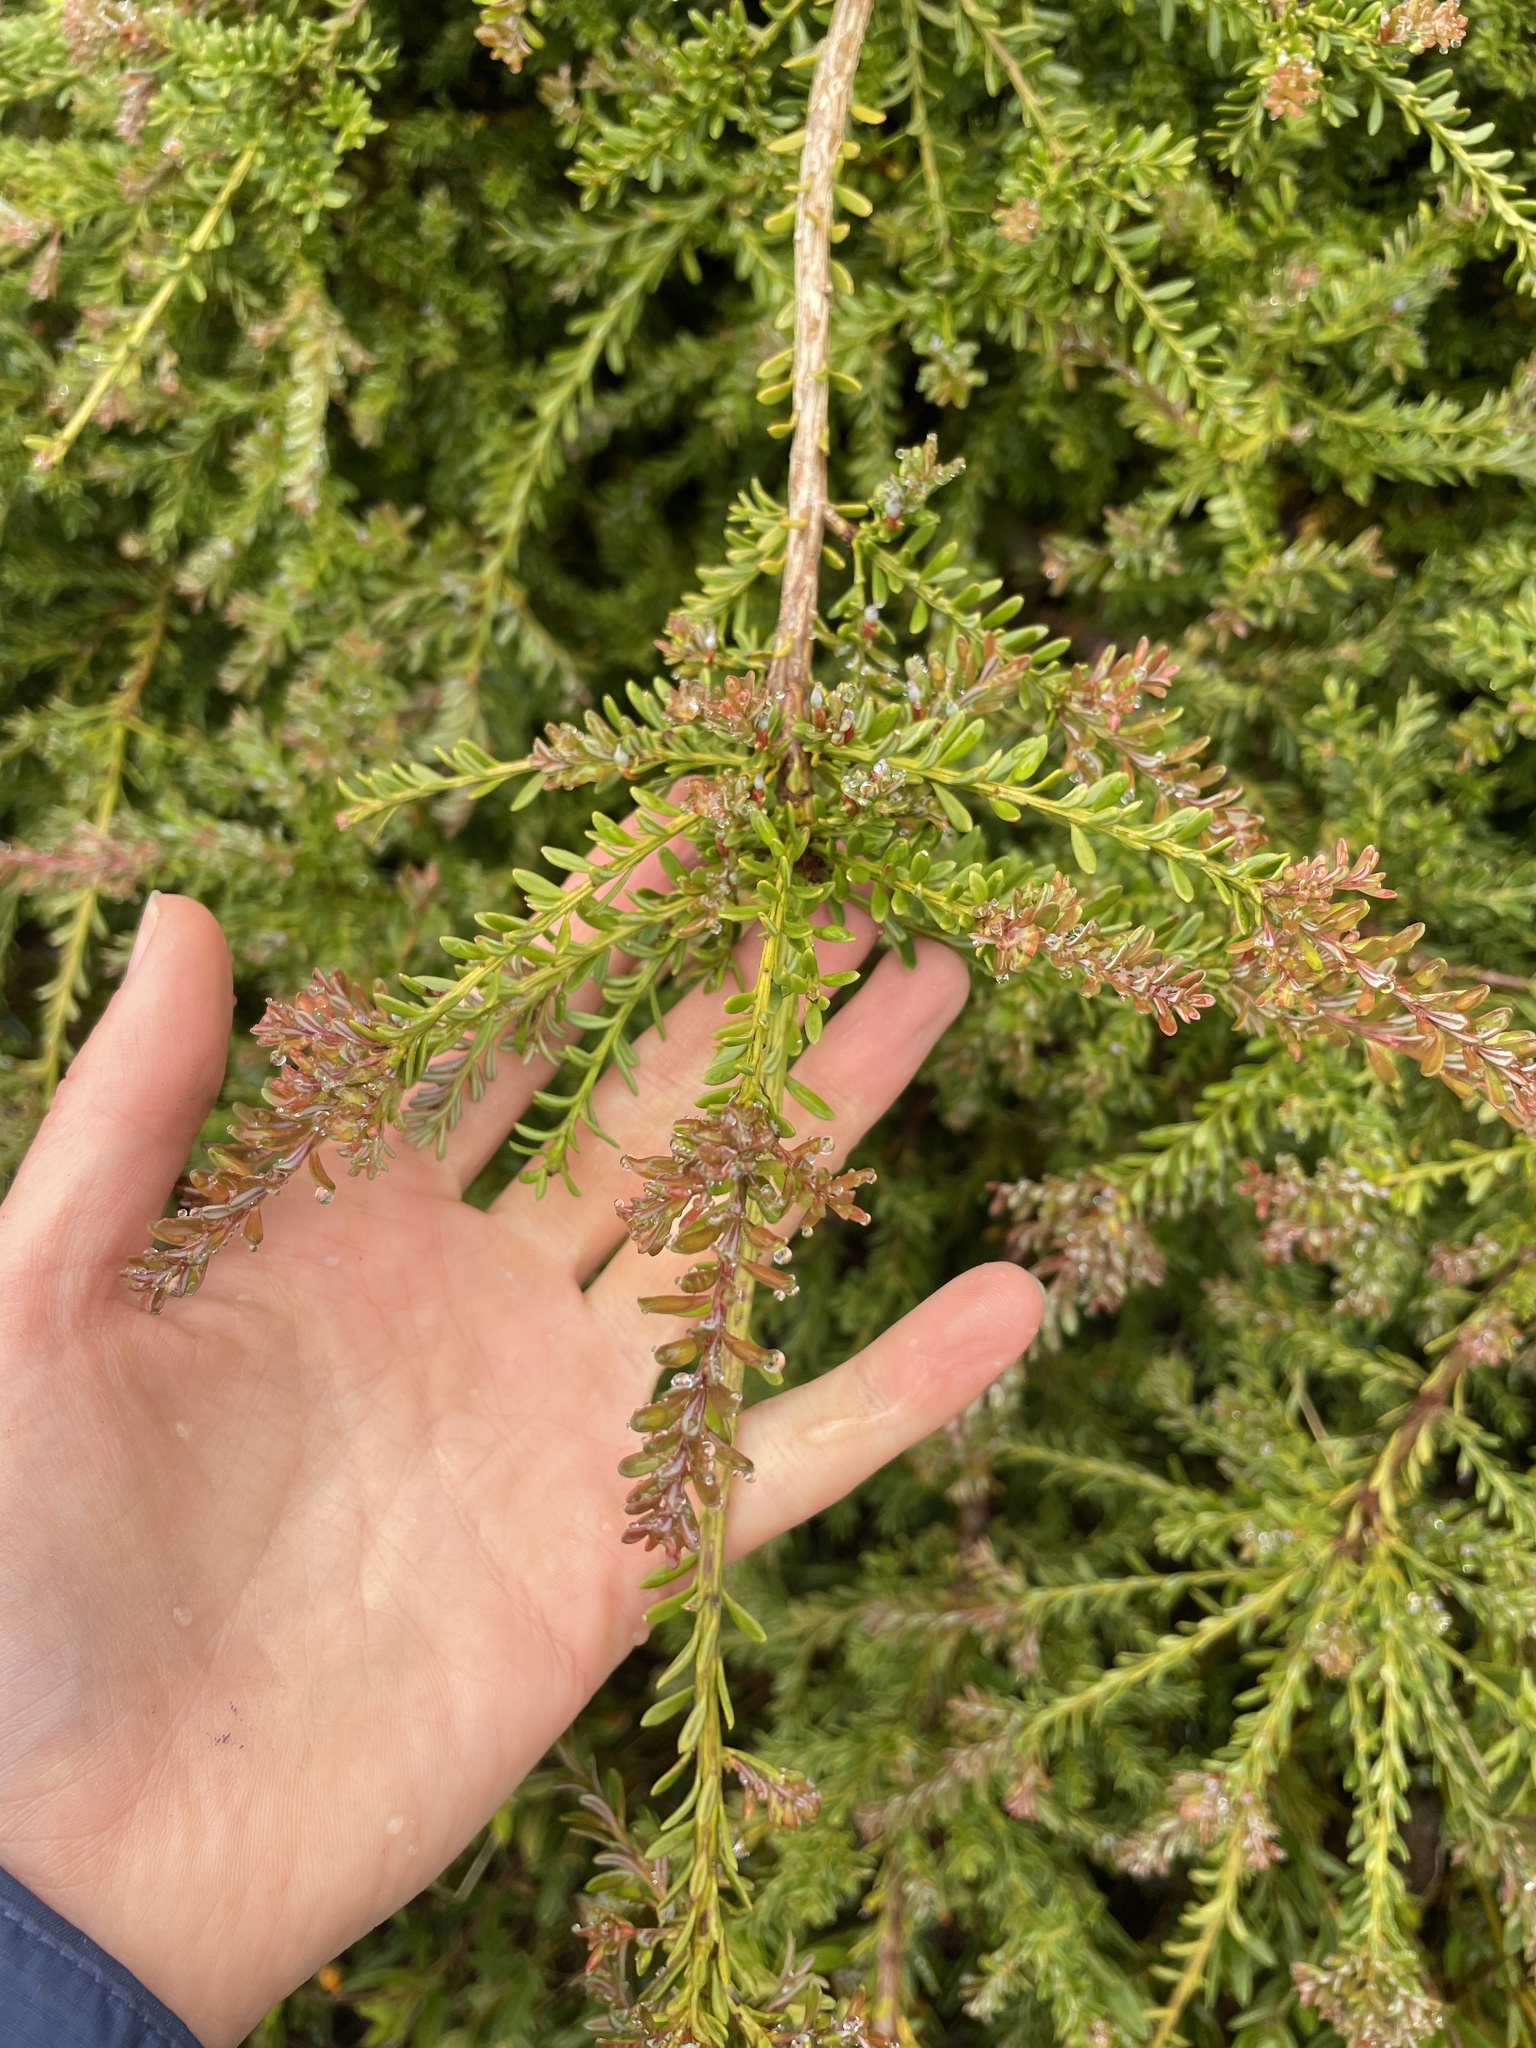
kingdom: Plantae
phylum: Tracheophyta
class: Pinopsida
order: Pinales
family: Podocarpaceae
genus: Podocarpus
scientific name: Podocarpus lawrencei
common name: Mountain plum pine
